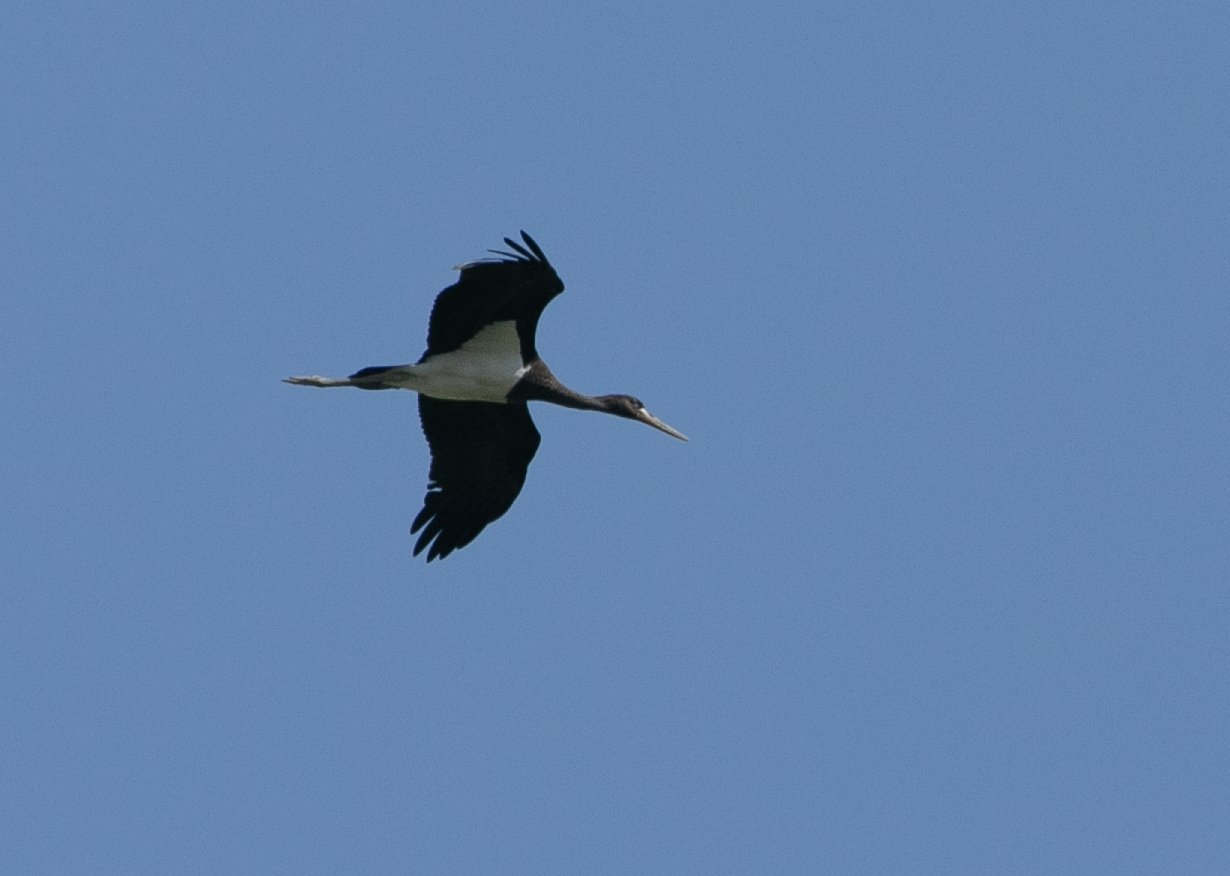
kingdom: Animalia
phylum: Chordata
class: Aves
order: Ciconiiformes
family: Ciconiidae
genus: Ciconia
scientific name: Ciconia nigra
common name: Black stork
